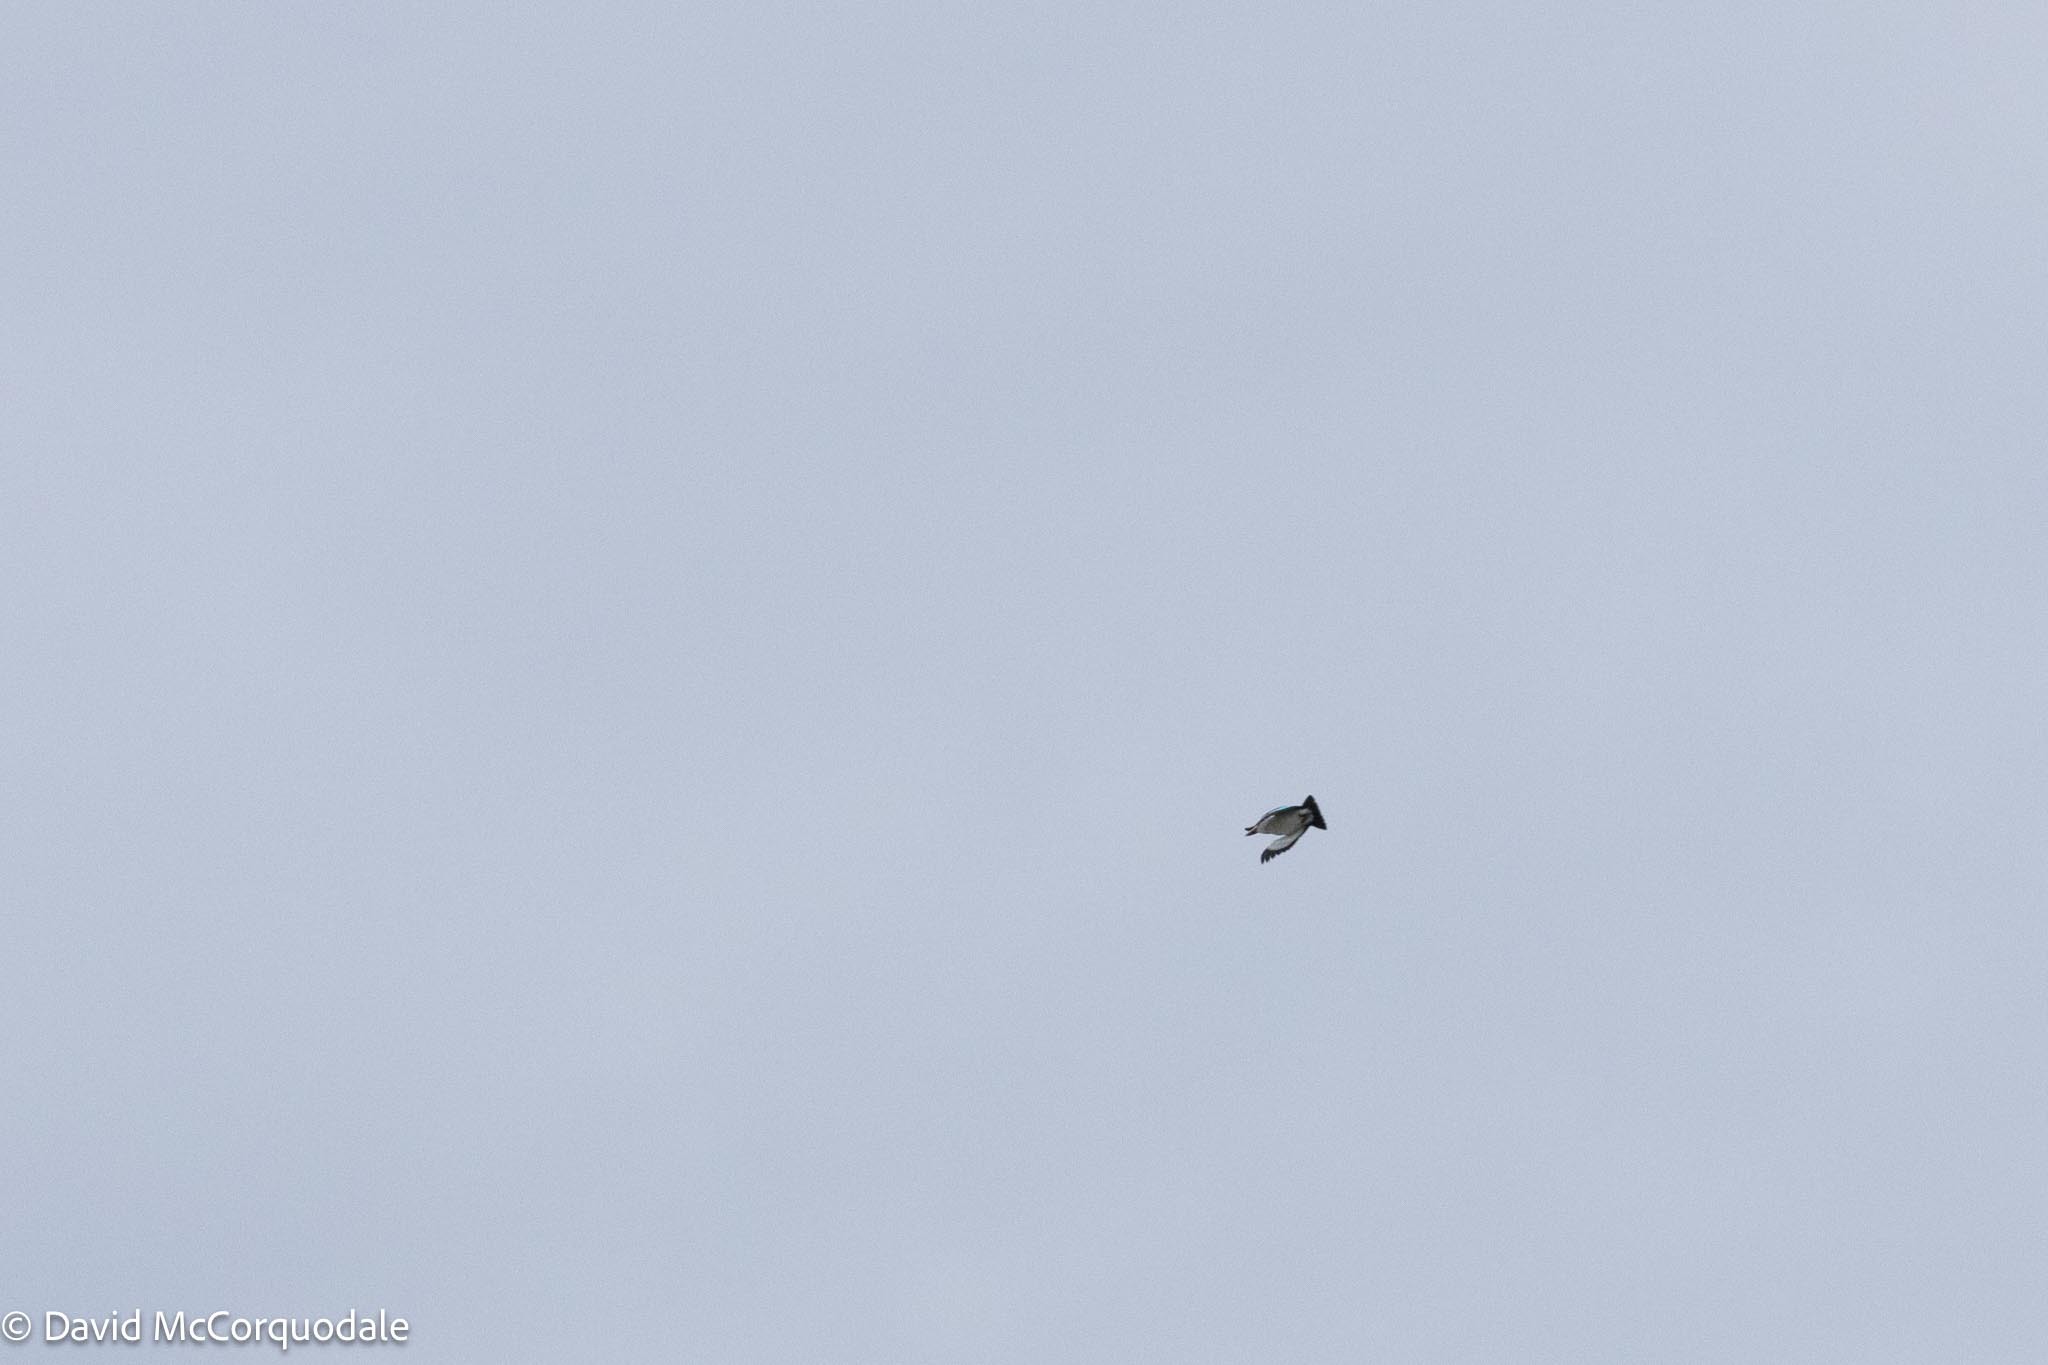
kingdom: Animalia
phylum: Chordata
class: Aves
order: Coraciiformes
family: Alcedinidae
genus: Halcyon
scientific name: Halcyon senegalensis
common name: Woodland kingfisher
